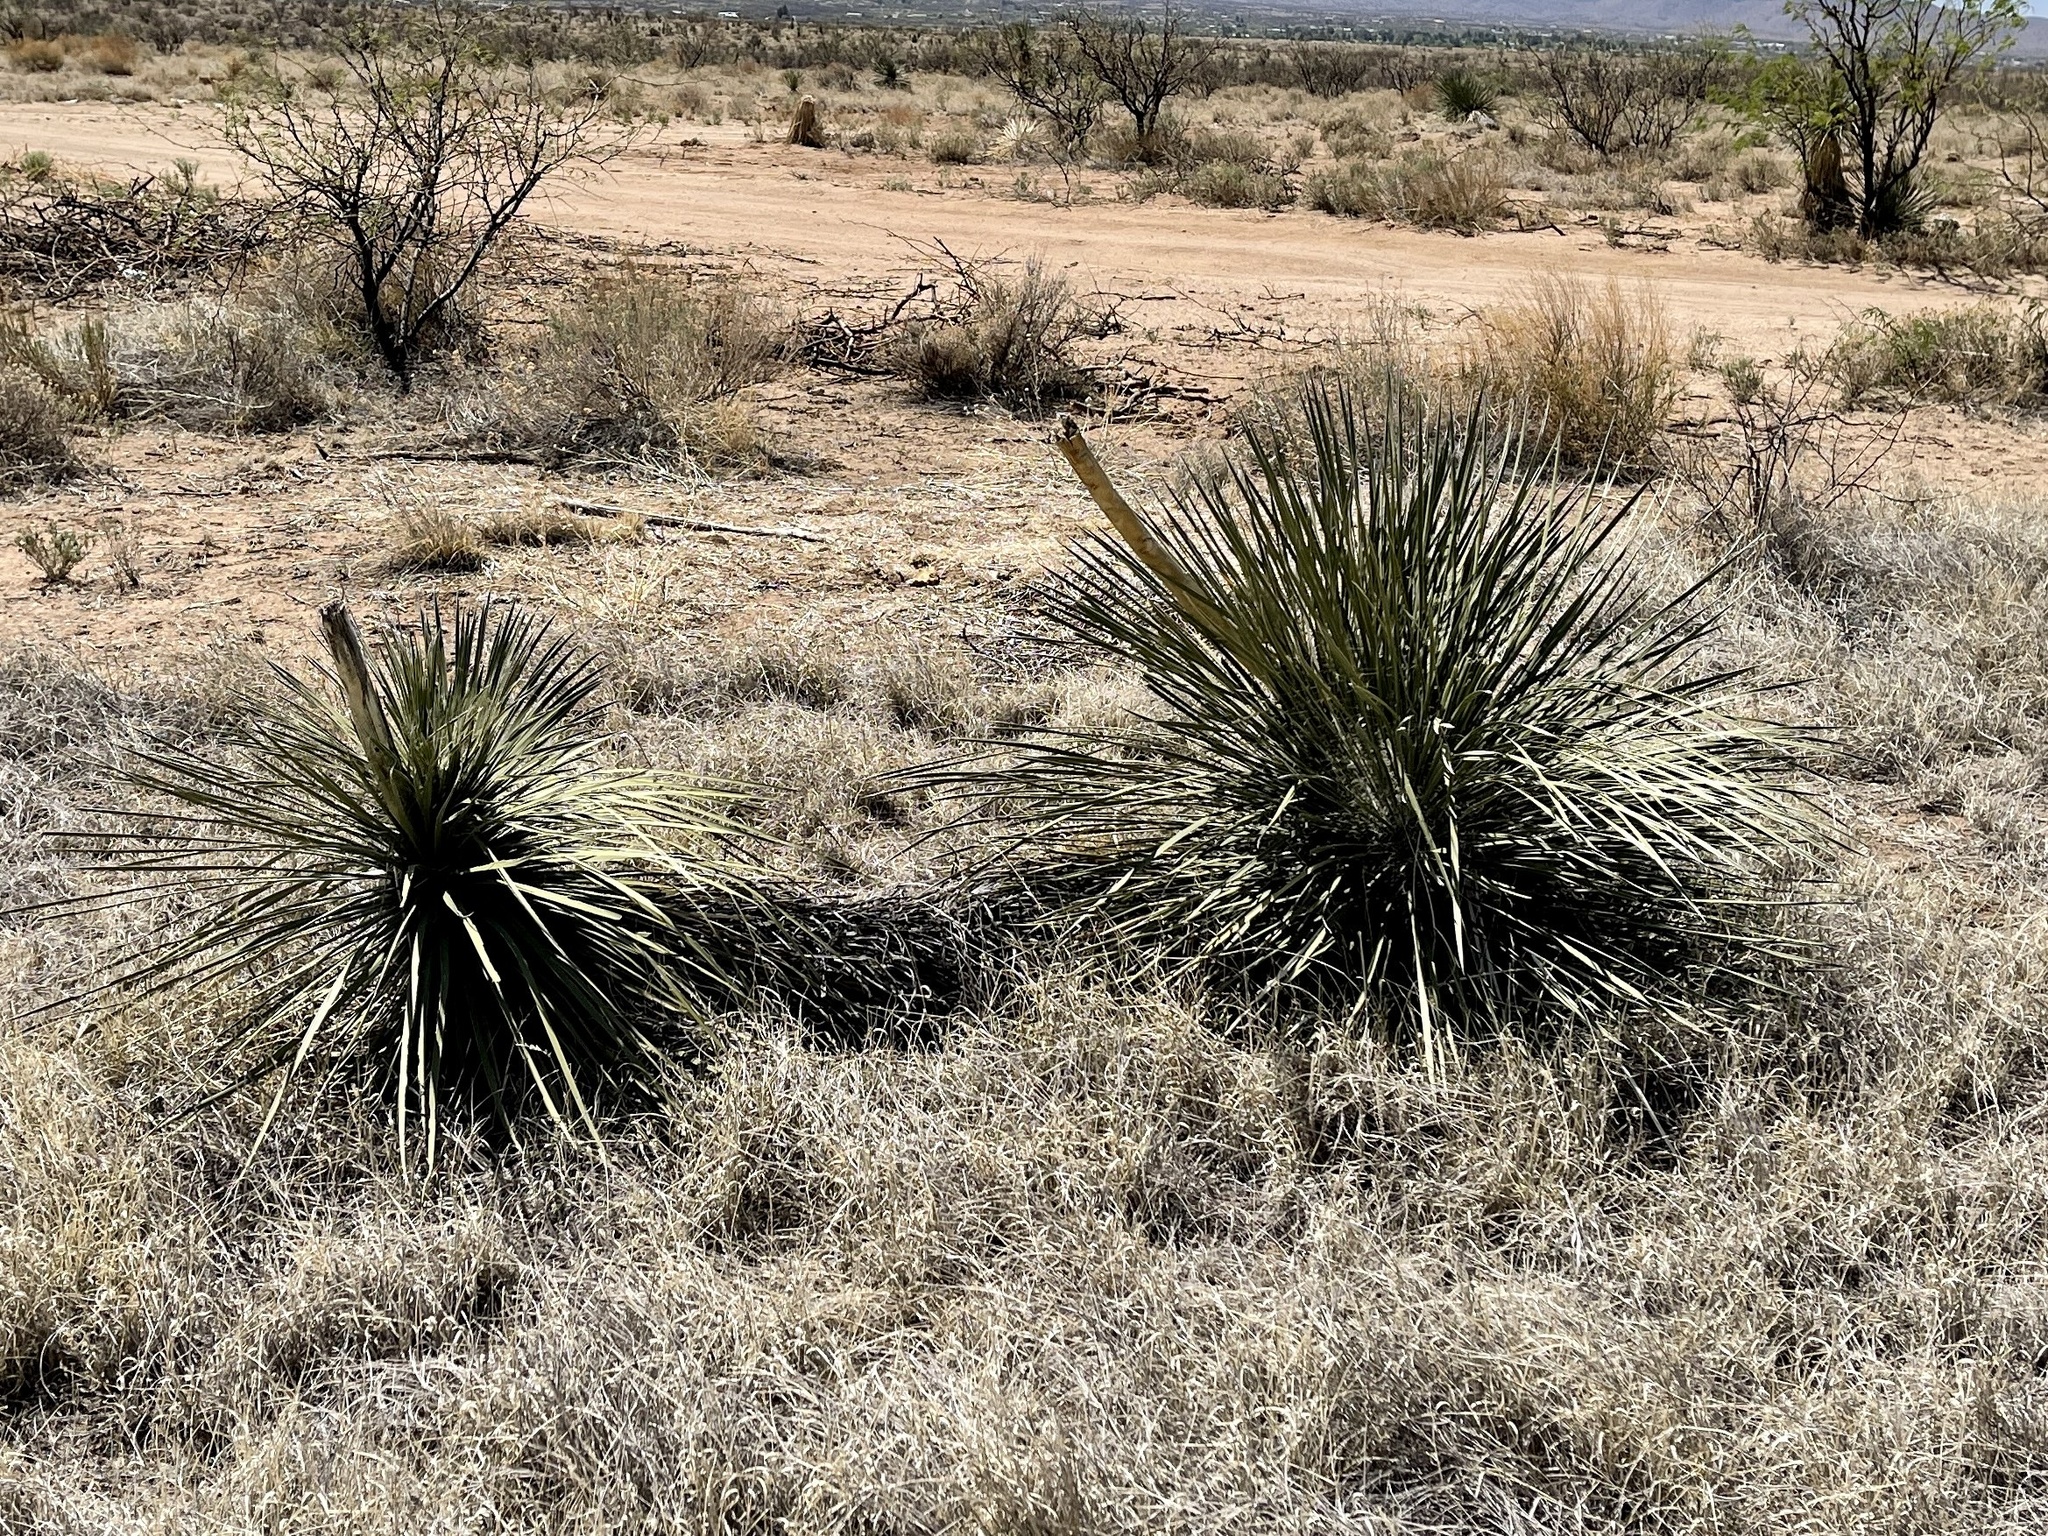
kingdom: Plantae
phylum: Tracheophyta
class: Liliopsida
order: Asparagales
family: Asparagaceae
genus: Yucca
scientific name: Yucca elata
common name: Palmella
